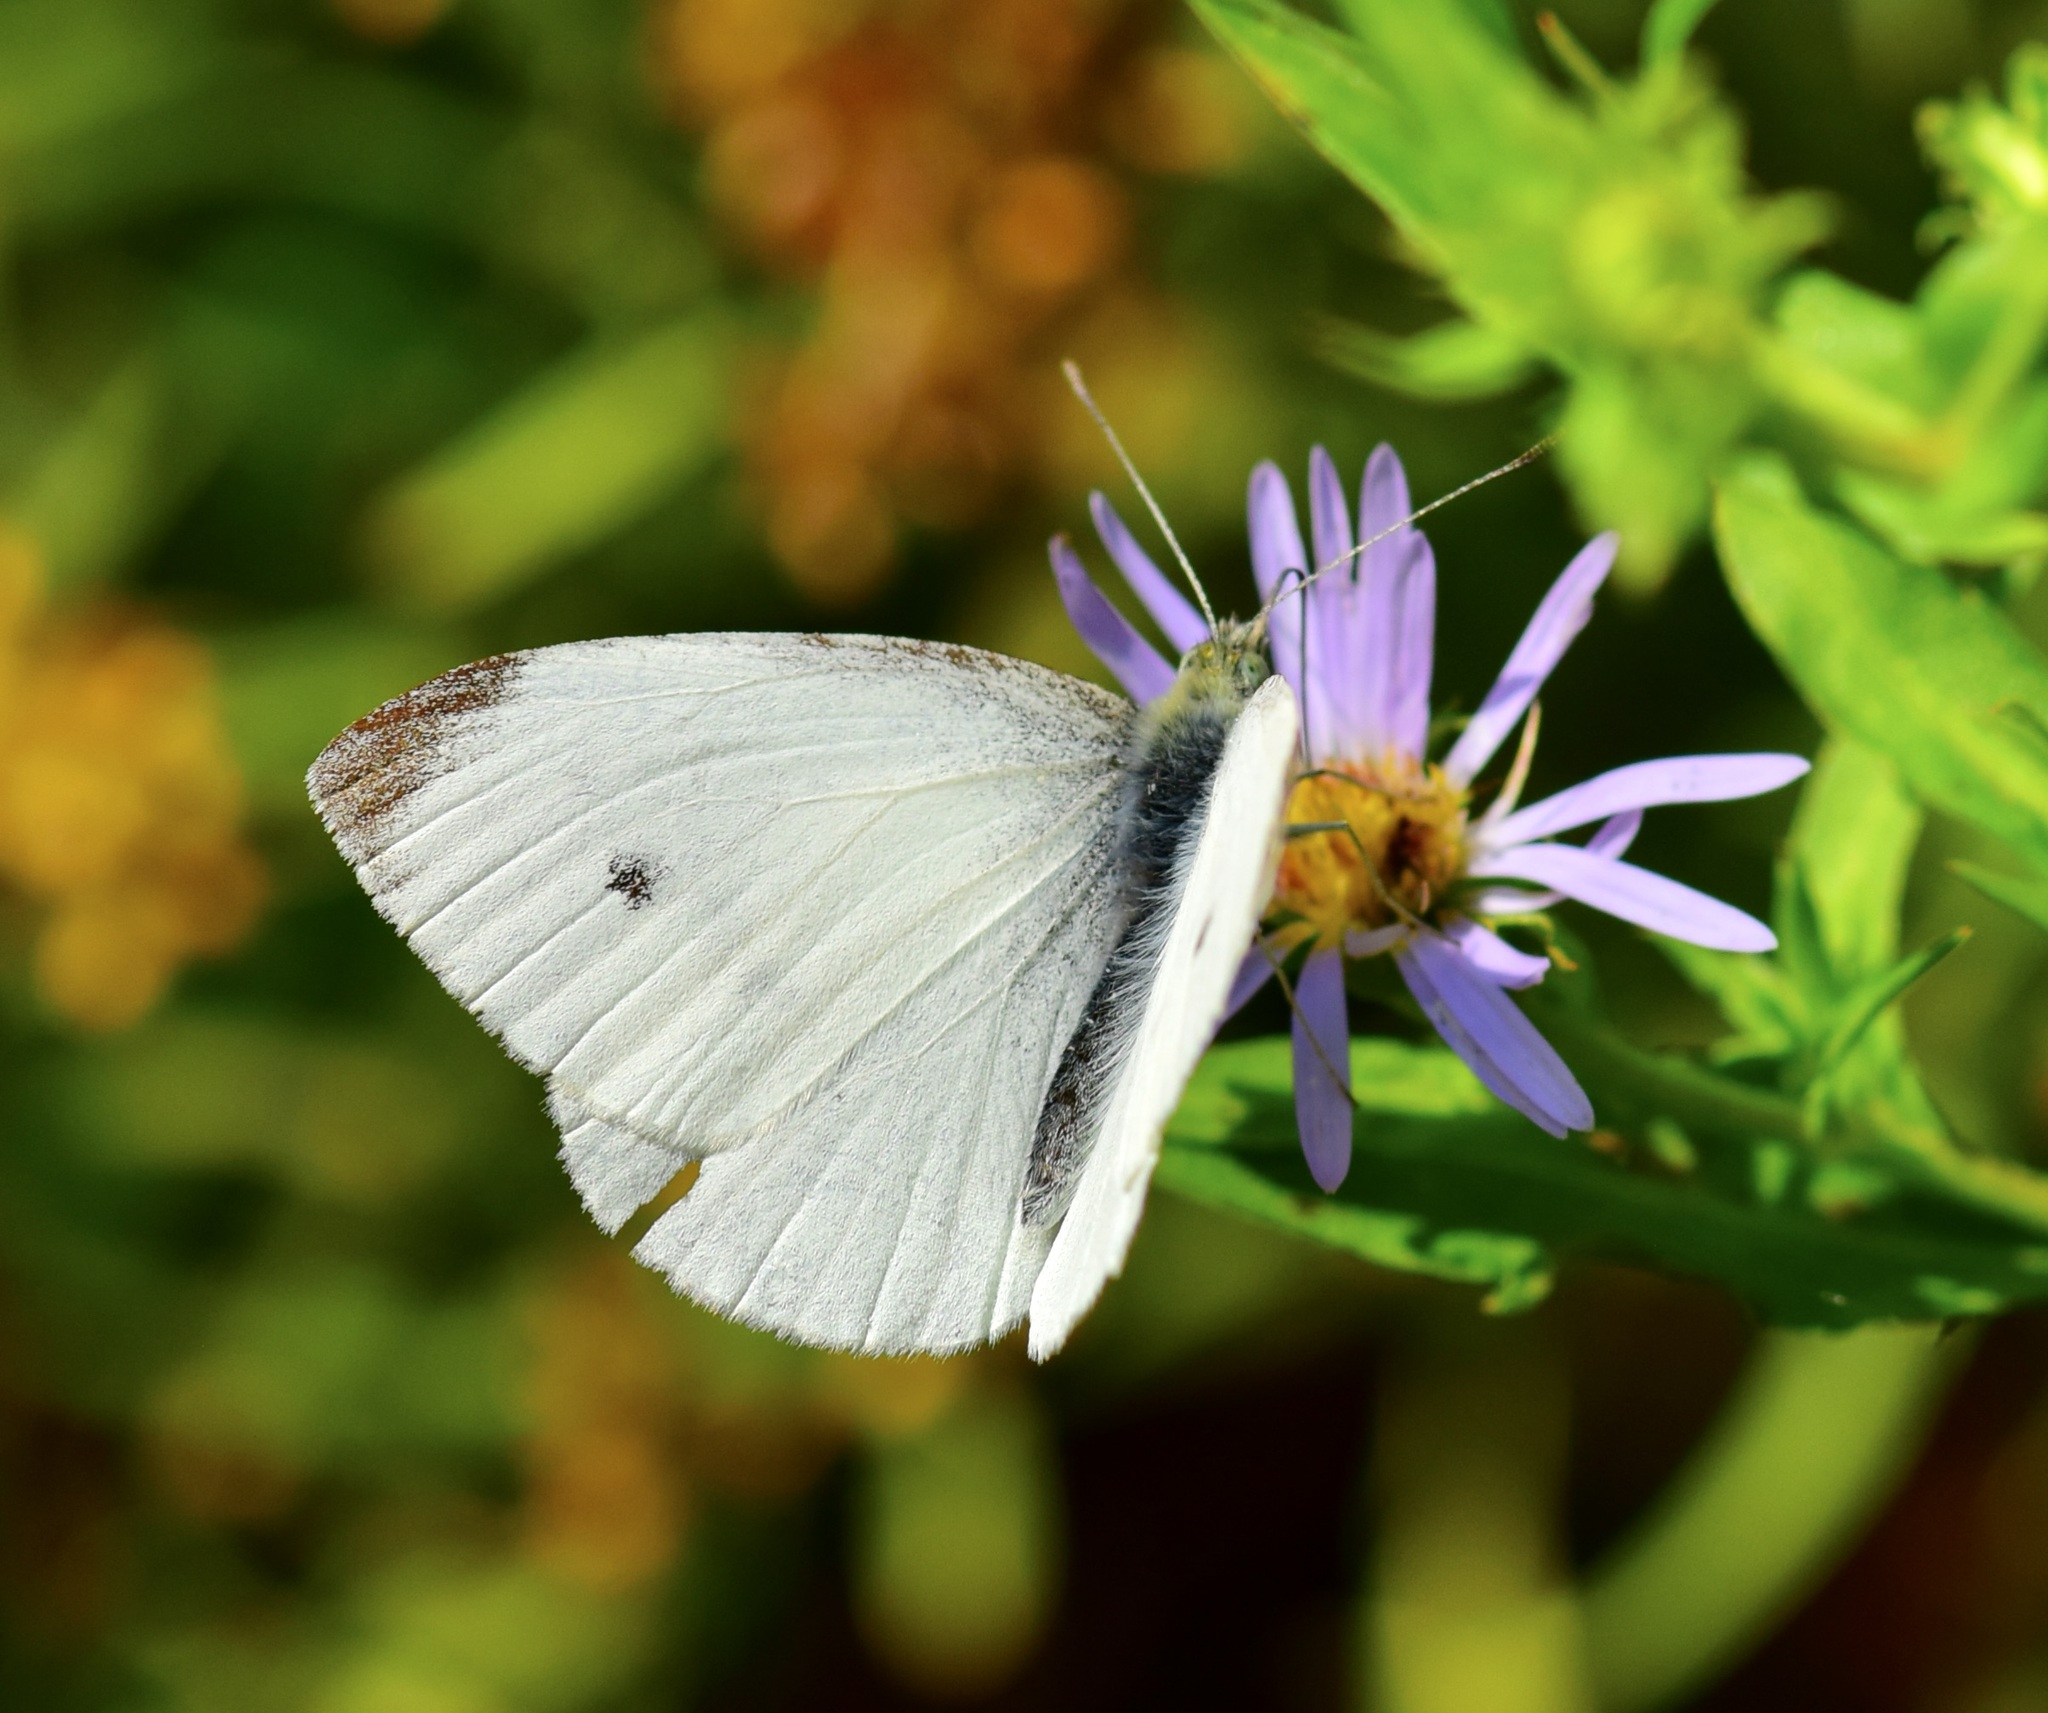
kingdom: Animalia
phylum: Arthropoda
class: Insecta
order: Lepidoptera
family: Pieridae
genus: Pieris
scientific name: Pieris rapae
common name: Small white
